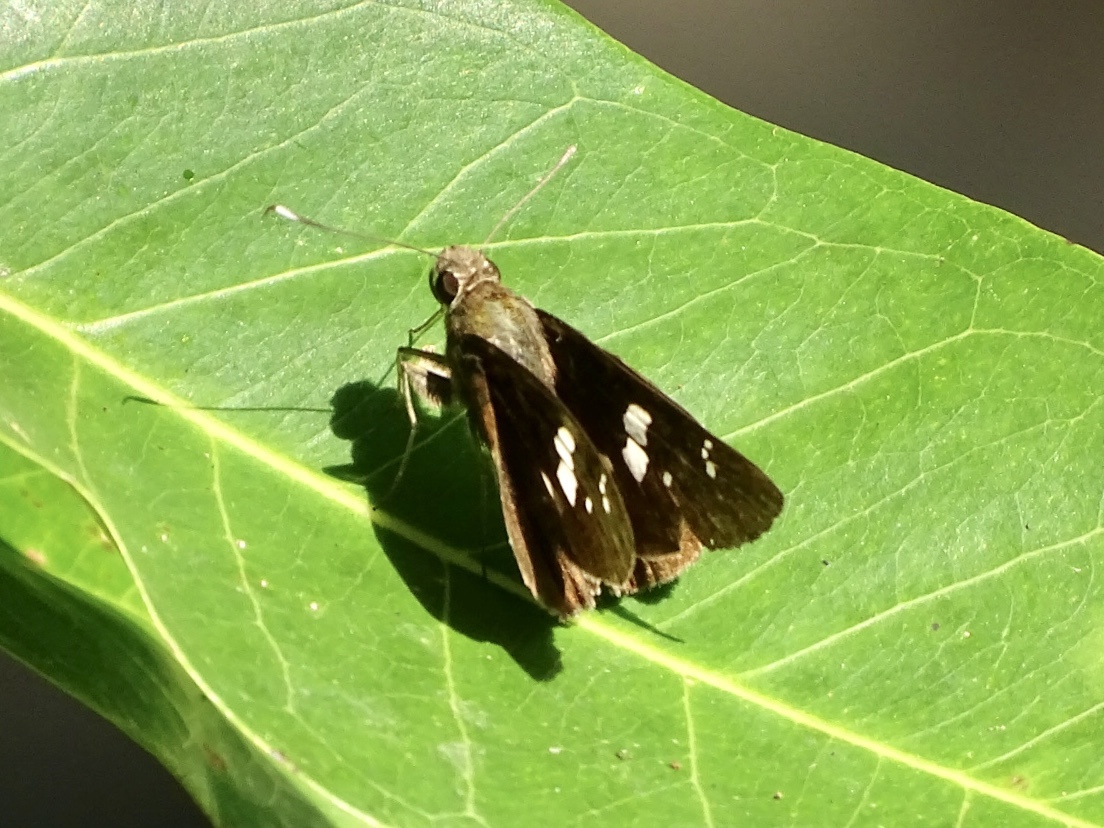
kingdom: Animalia
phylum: Arthropoda
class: Insecta
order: Lepidoptera
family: Hesperiidae
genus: Hyarotis
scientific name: Hyarotis adrastus
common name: Tree flitter
